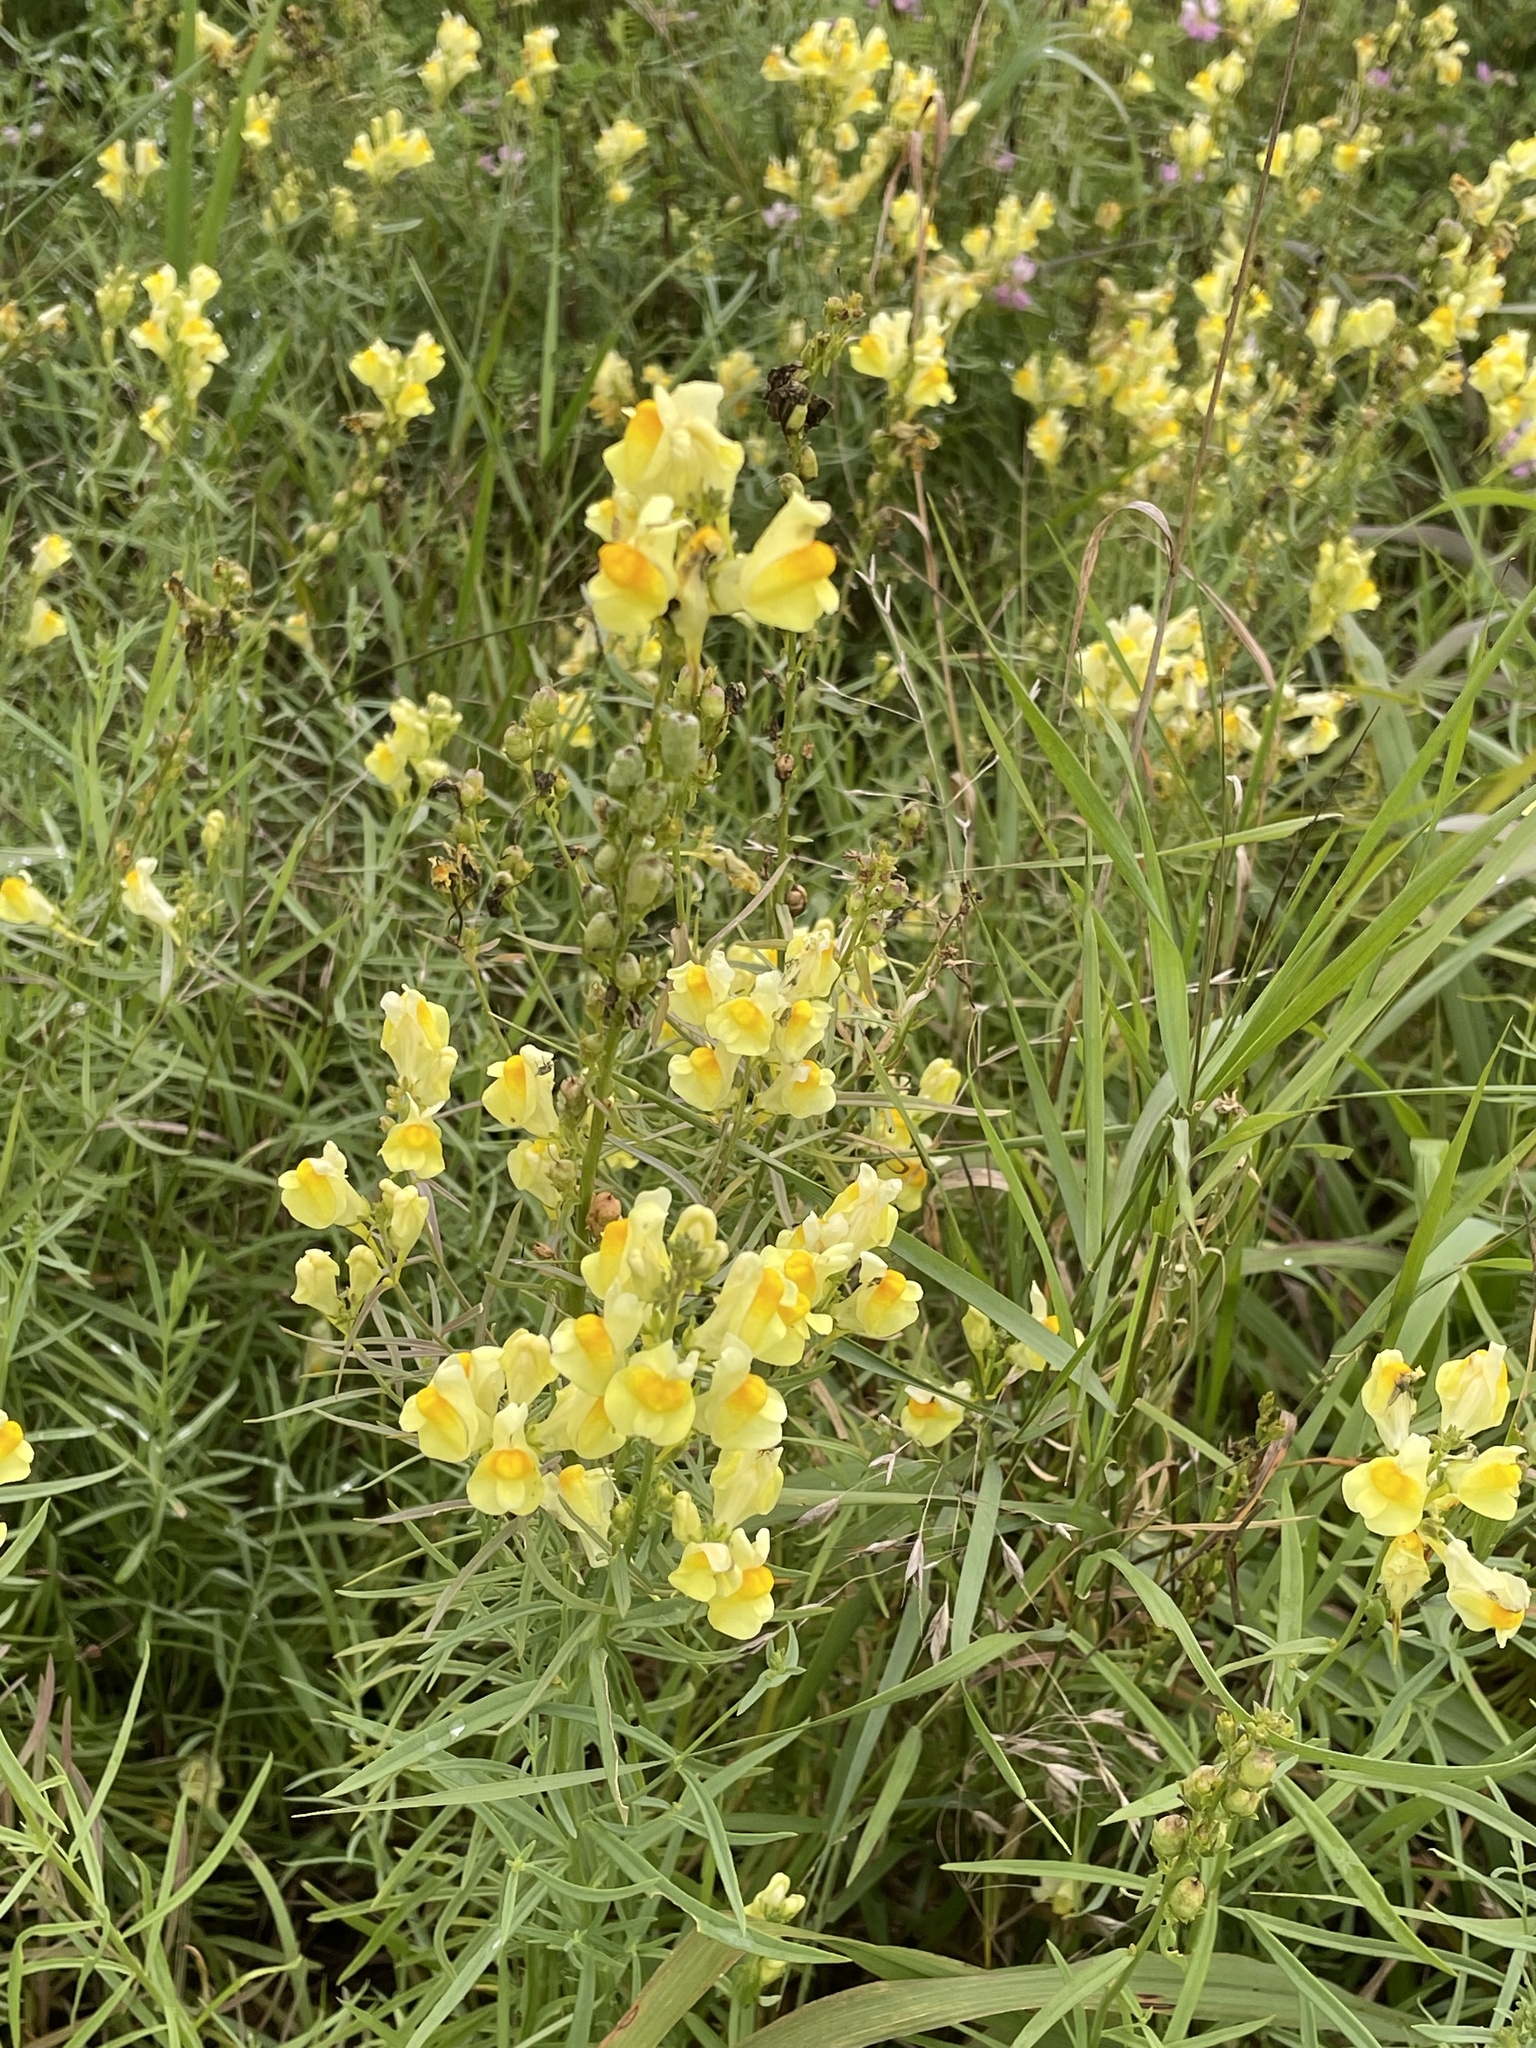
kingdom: Plantae
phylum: Tracheophyta
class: Magnoliopsida
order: Lamiales
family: Plantaginaceae
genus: Linaria
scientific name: Linaria vulgaris
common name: Butter and eggs
